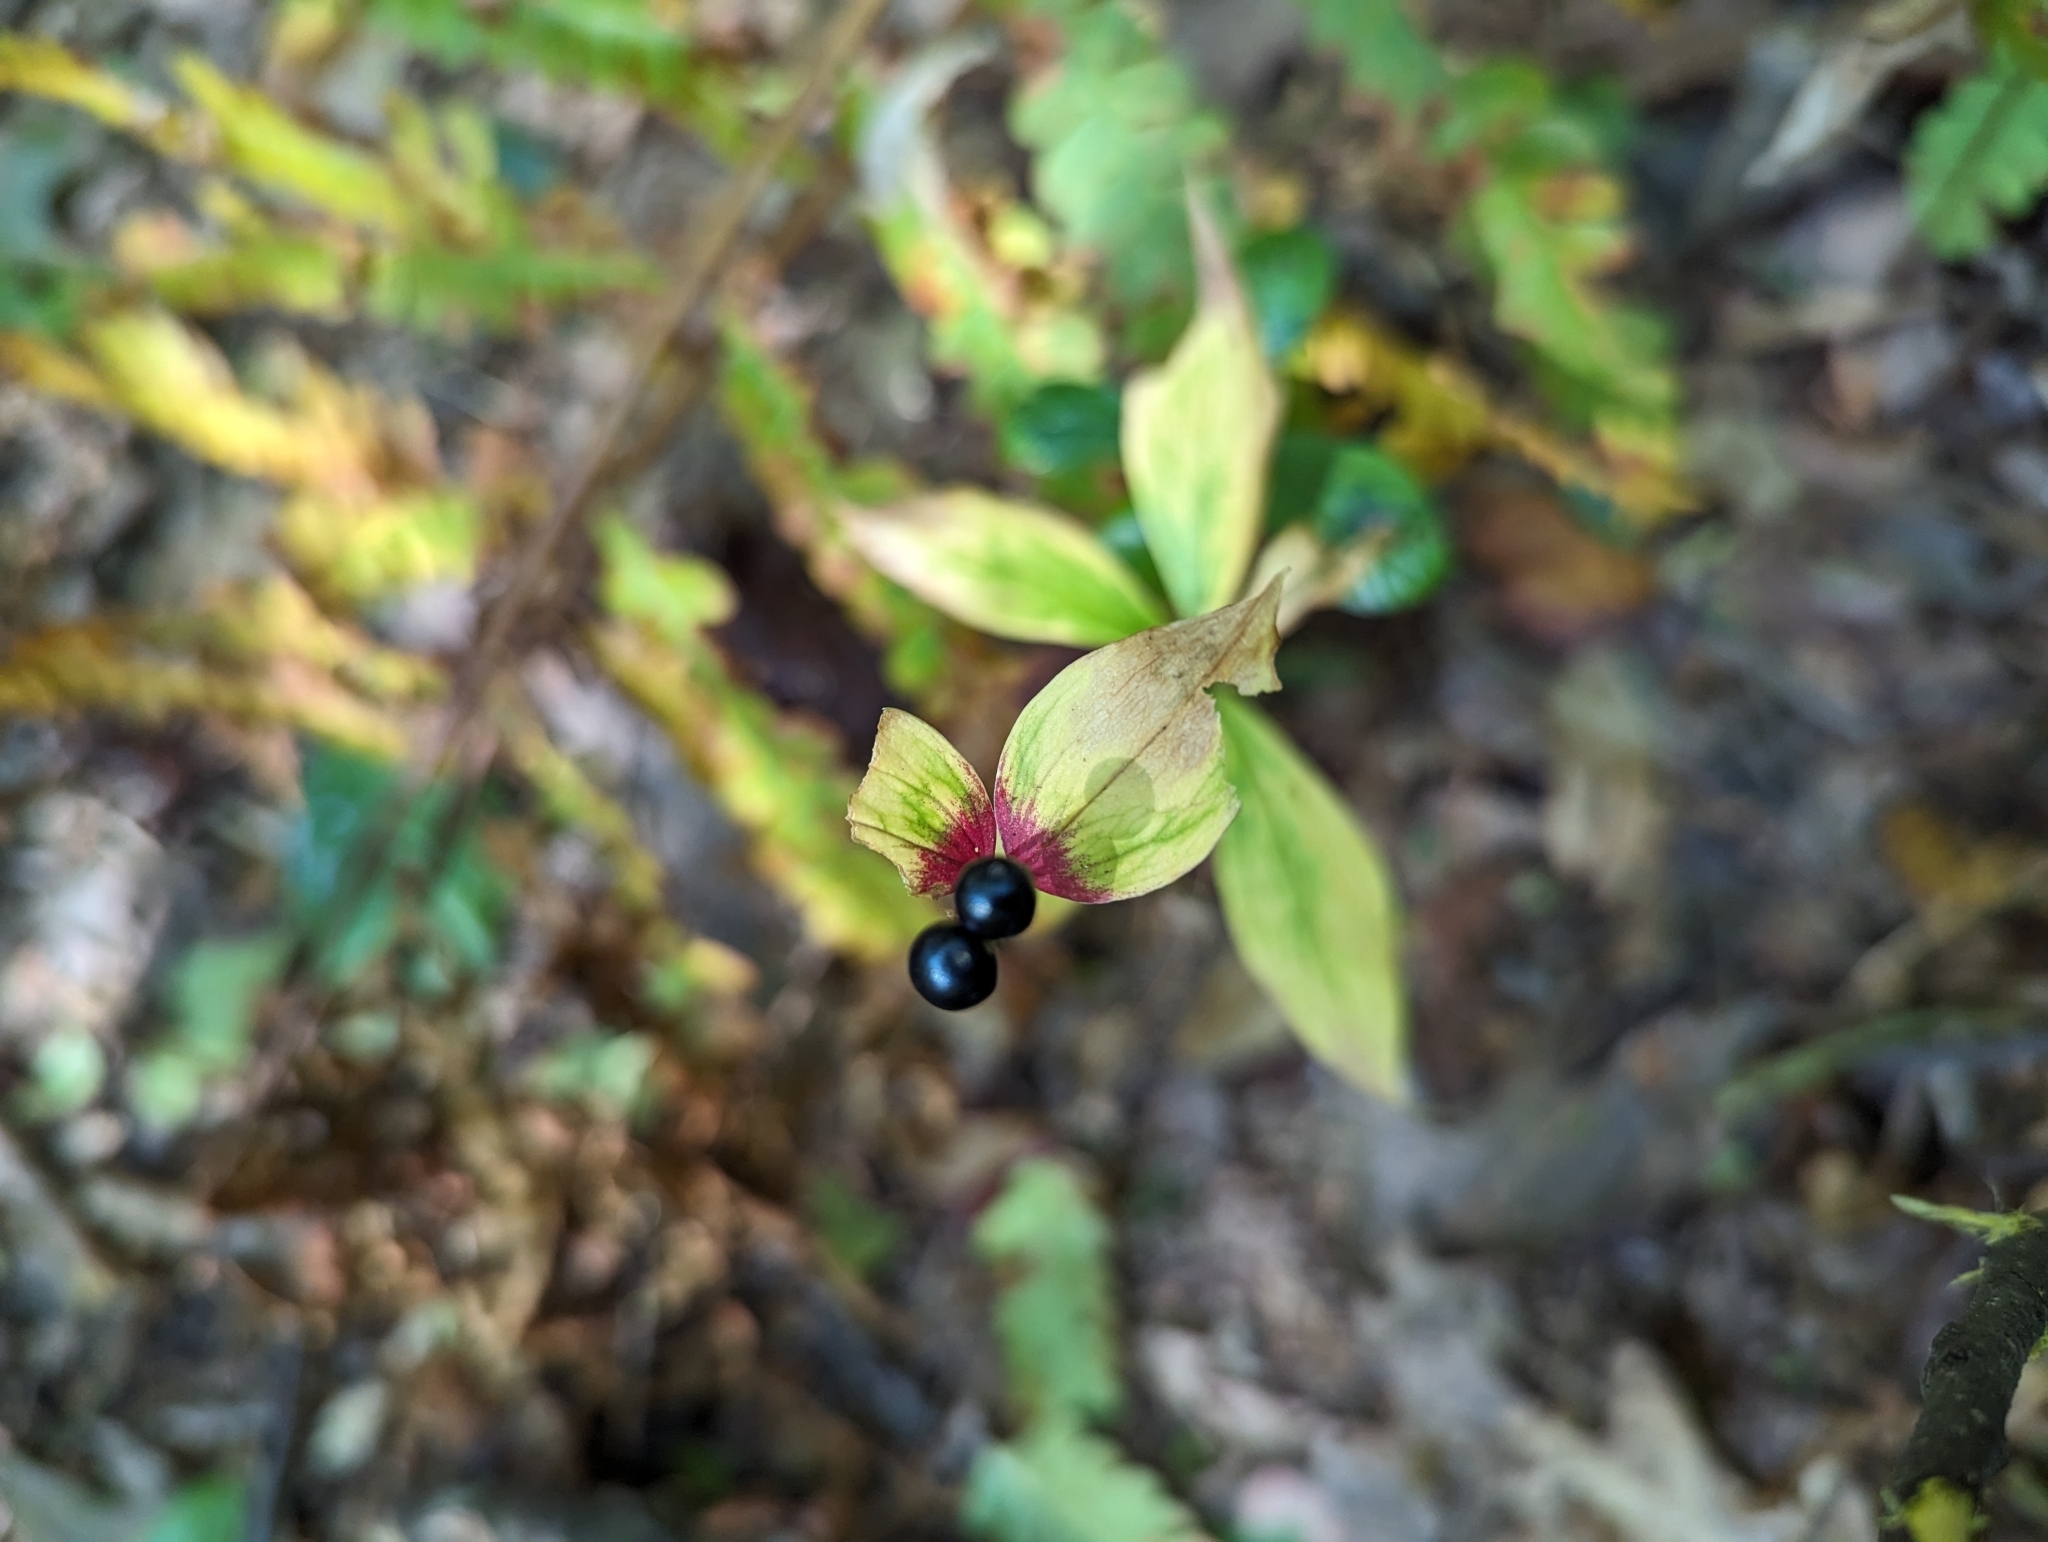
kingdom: Plantae
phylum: Tracheophyta
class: Liliopsida
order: Liliales
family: Liliaceae
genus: Medeola
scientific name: Medeola virginiana
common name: Indian cucumber-root
